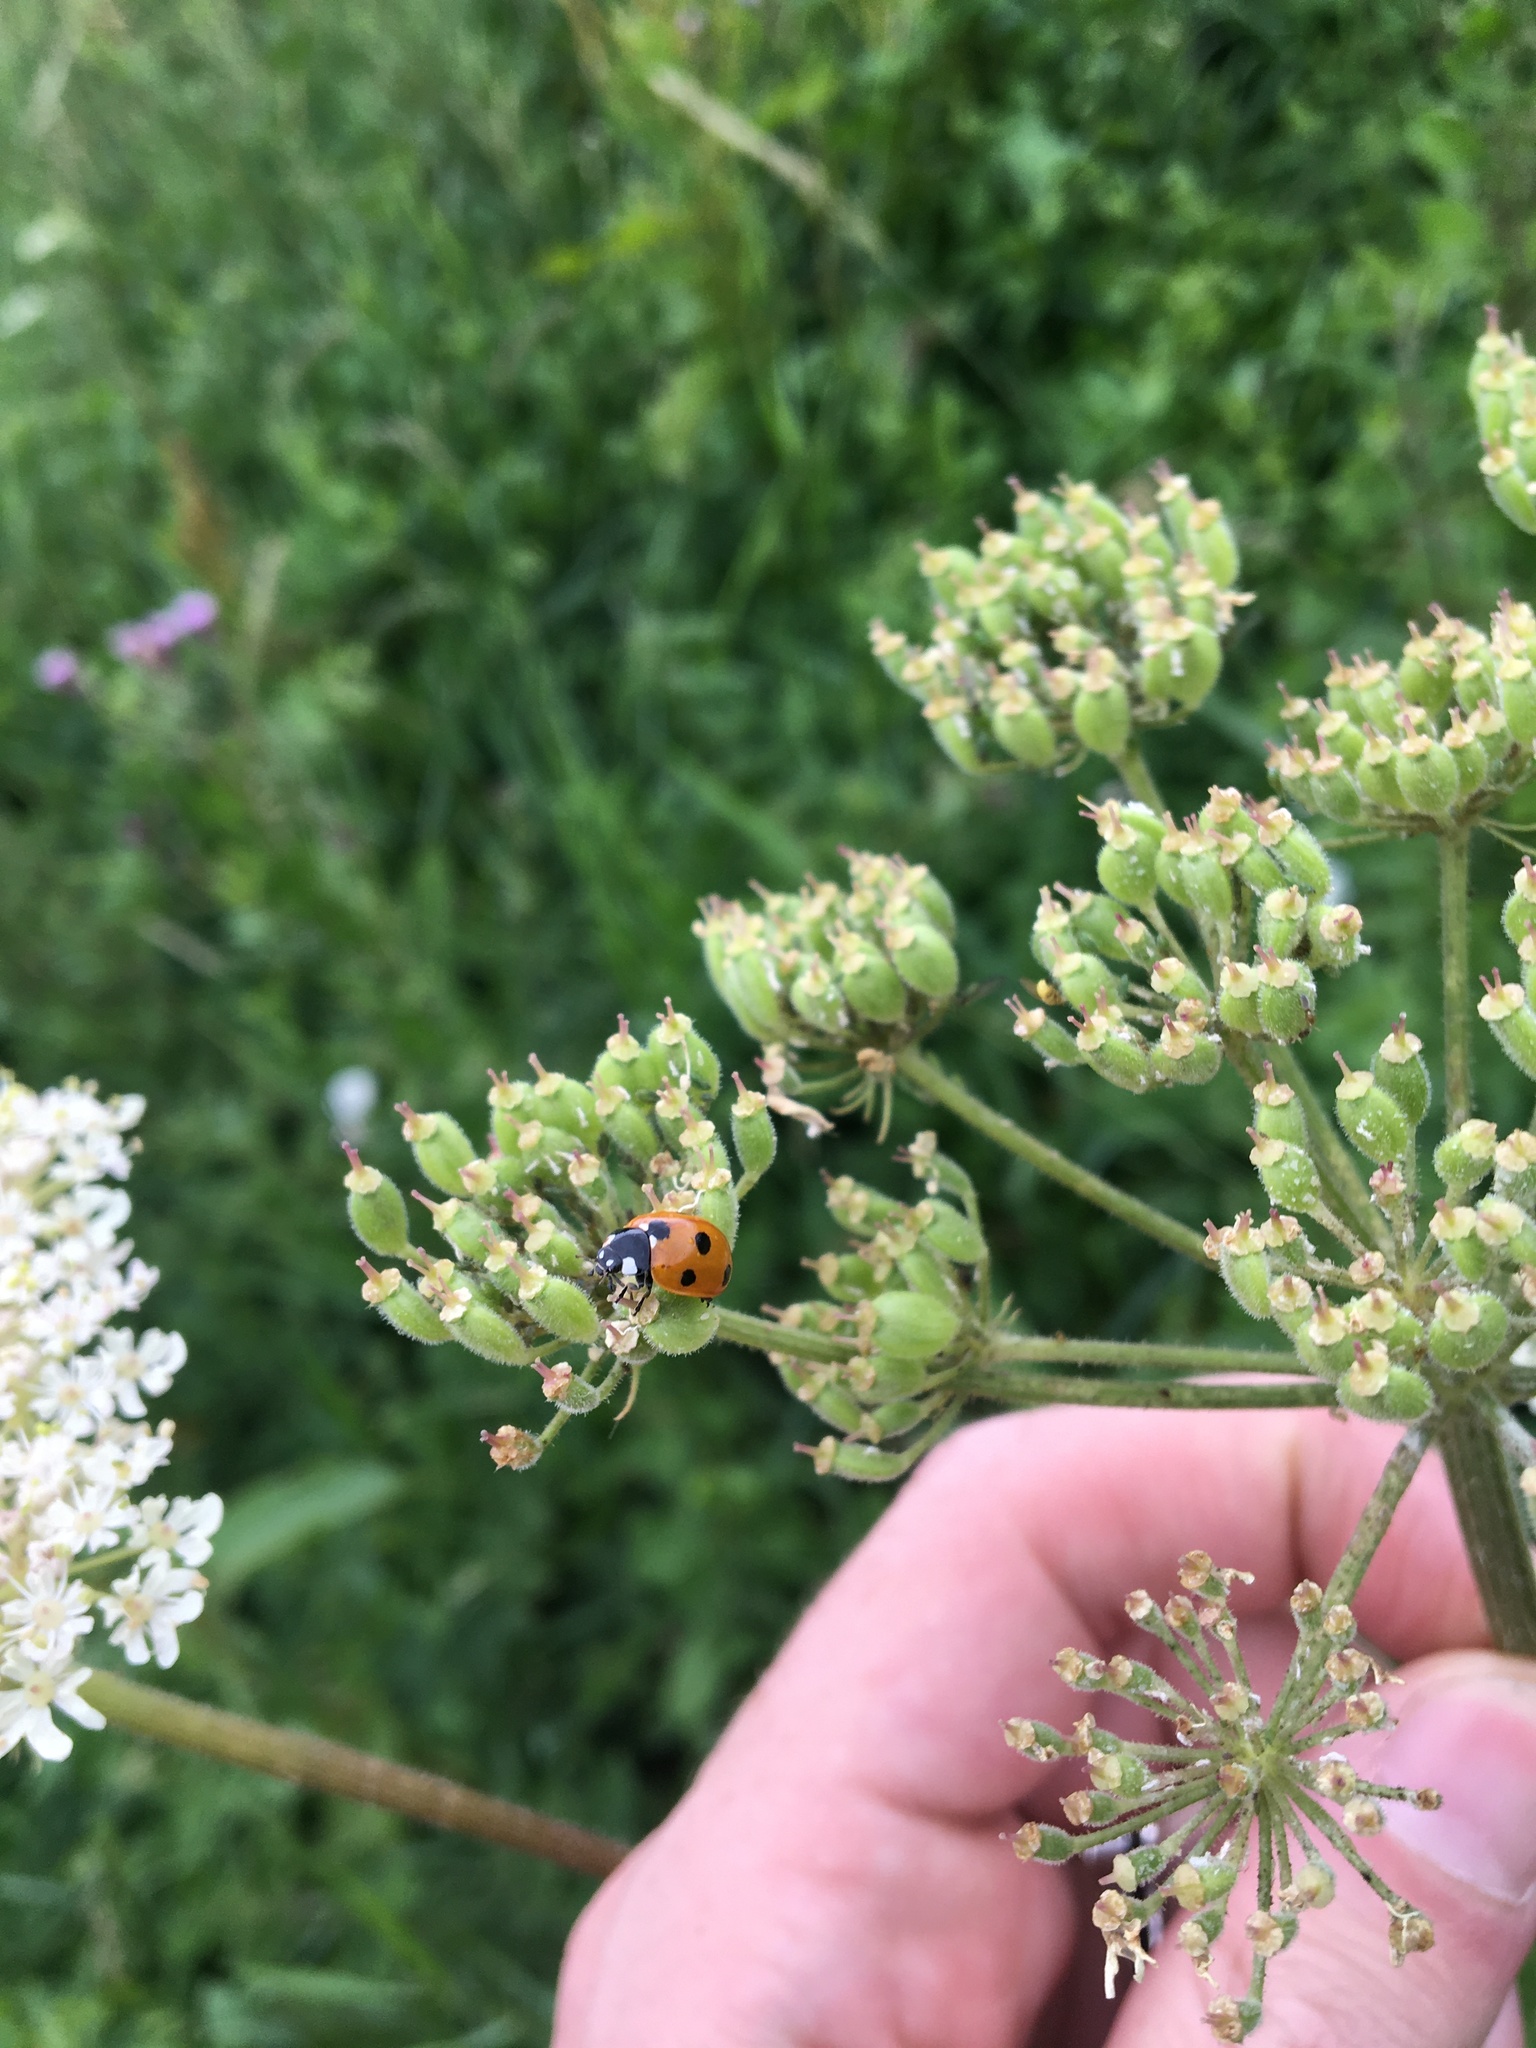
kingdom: Animalia
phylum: Arthropoda
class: Insecta
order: Coleoptera
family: Coccinellidae
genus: Coccinella
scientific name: Coccinella septempunctata
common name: Sevenspotted lady beetle
